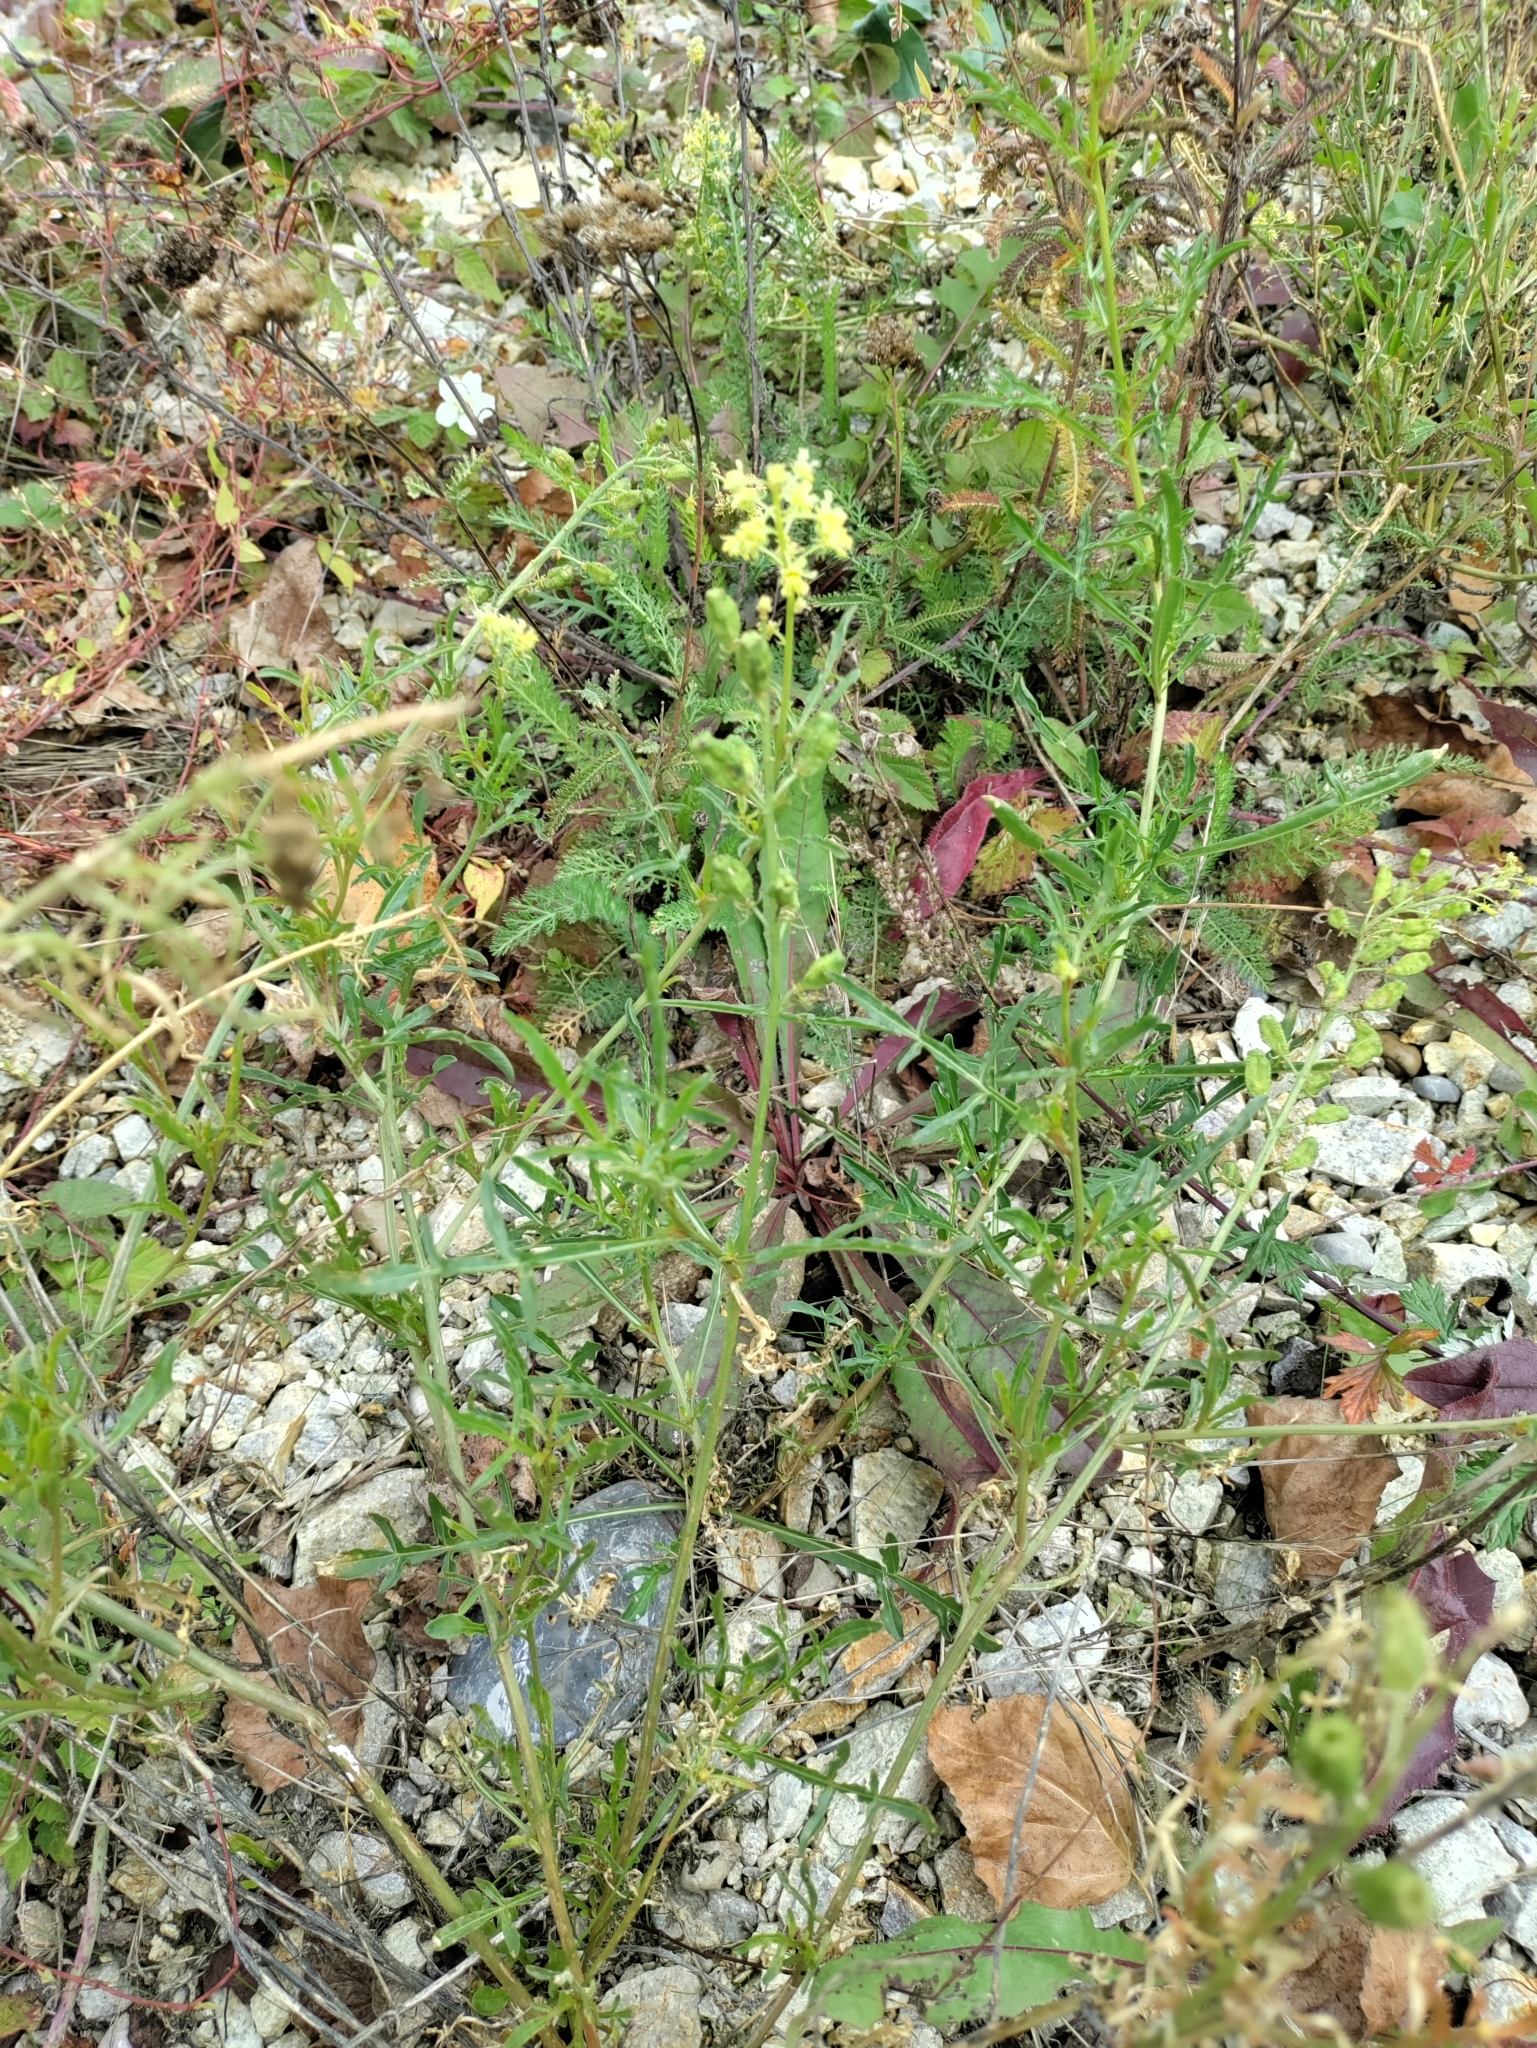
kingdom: Plantae
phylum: Tracheophyta
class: Magnoliopsida
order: Brassicales
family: Resedaceae
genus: Reseda
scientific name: Reseda lutea
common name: Wild mignonette
